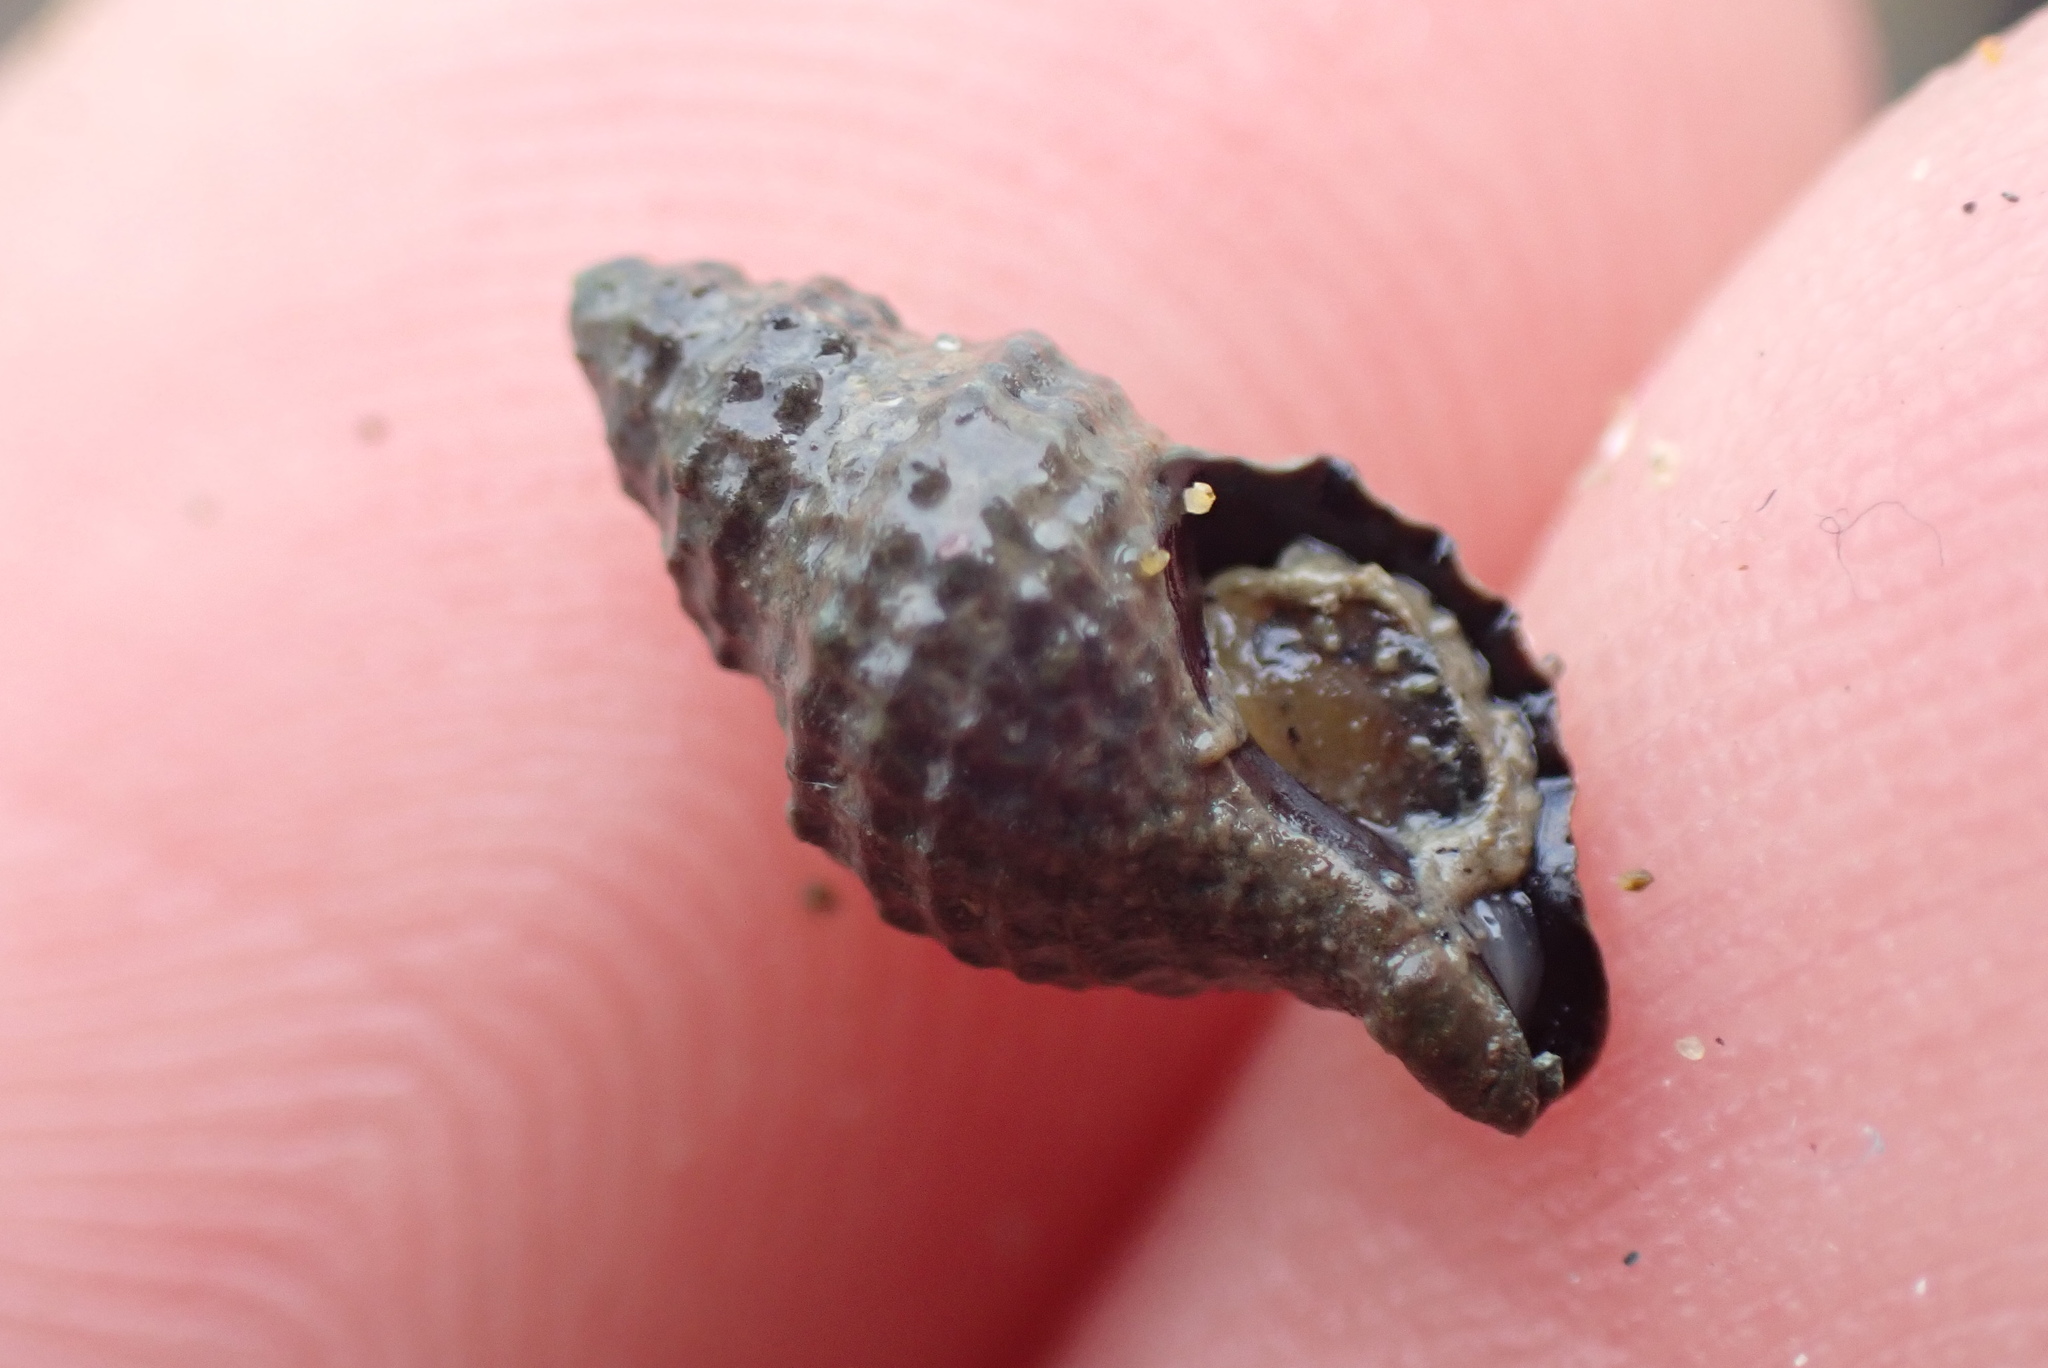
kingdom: Animalia
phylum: Mollusca
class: Gastropoda
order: Neogastropoda
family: Muricidae
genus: Xymene
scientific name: Xymene plebeius
